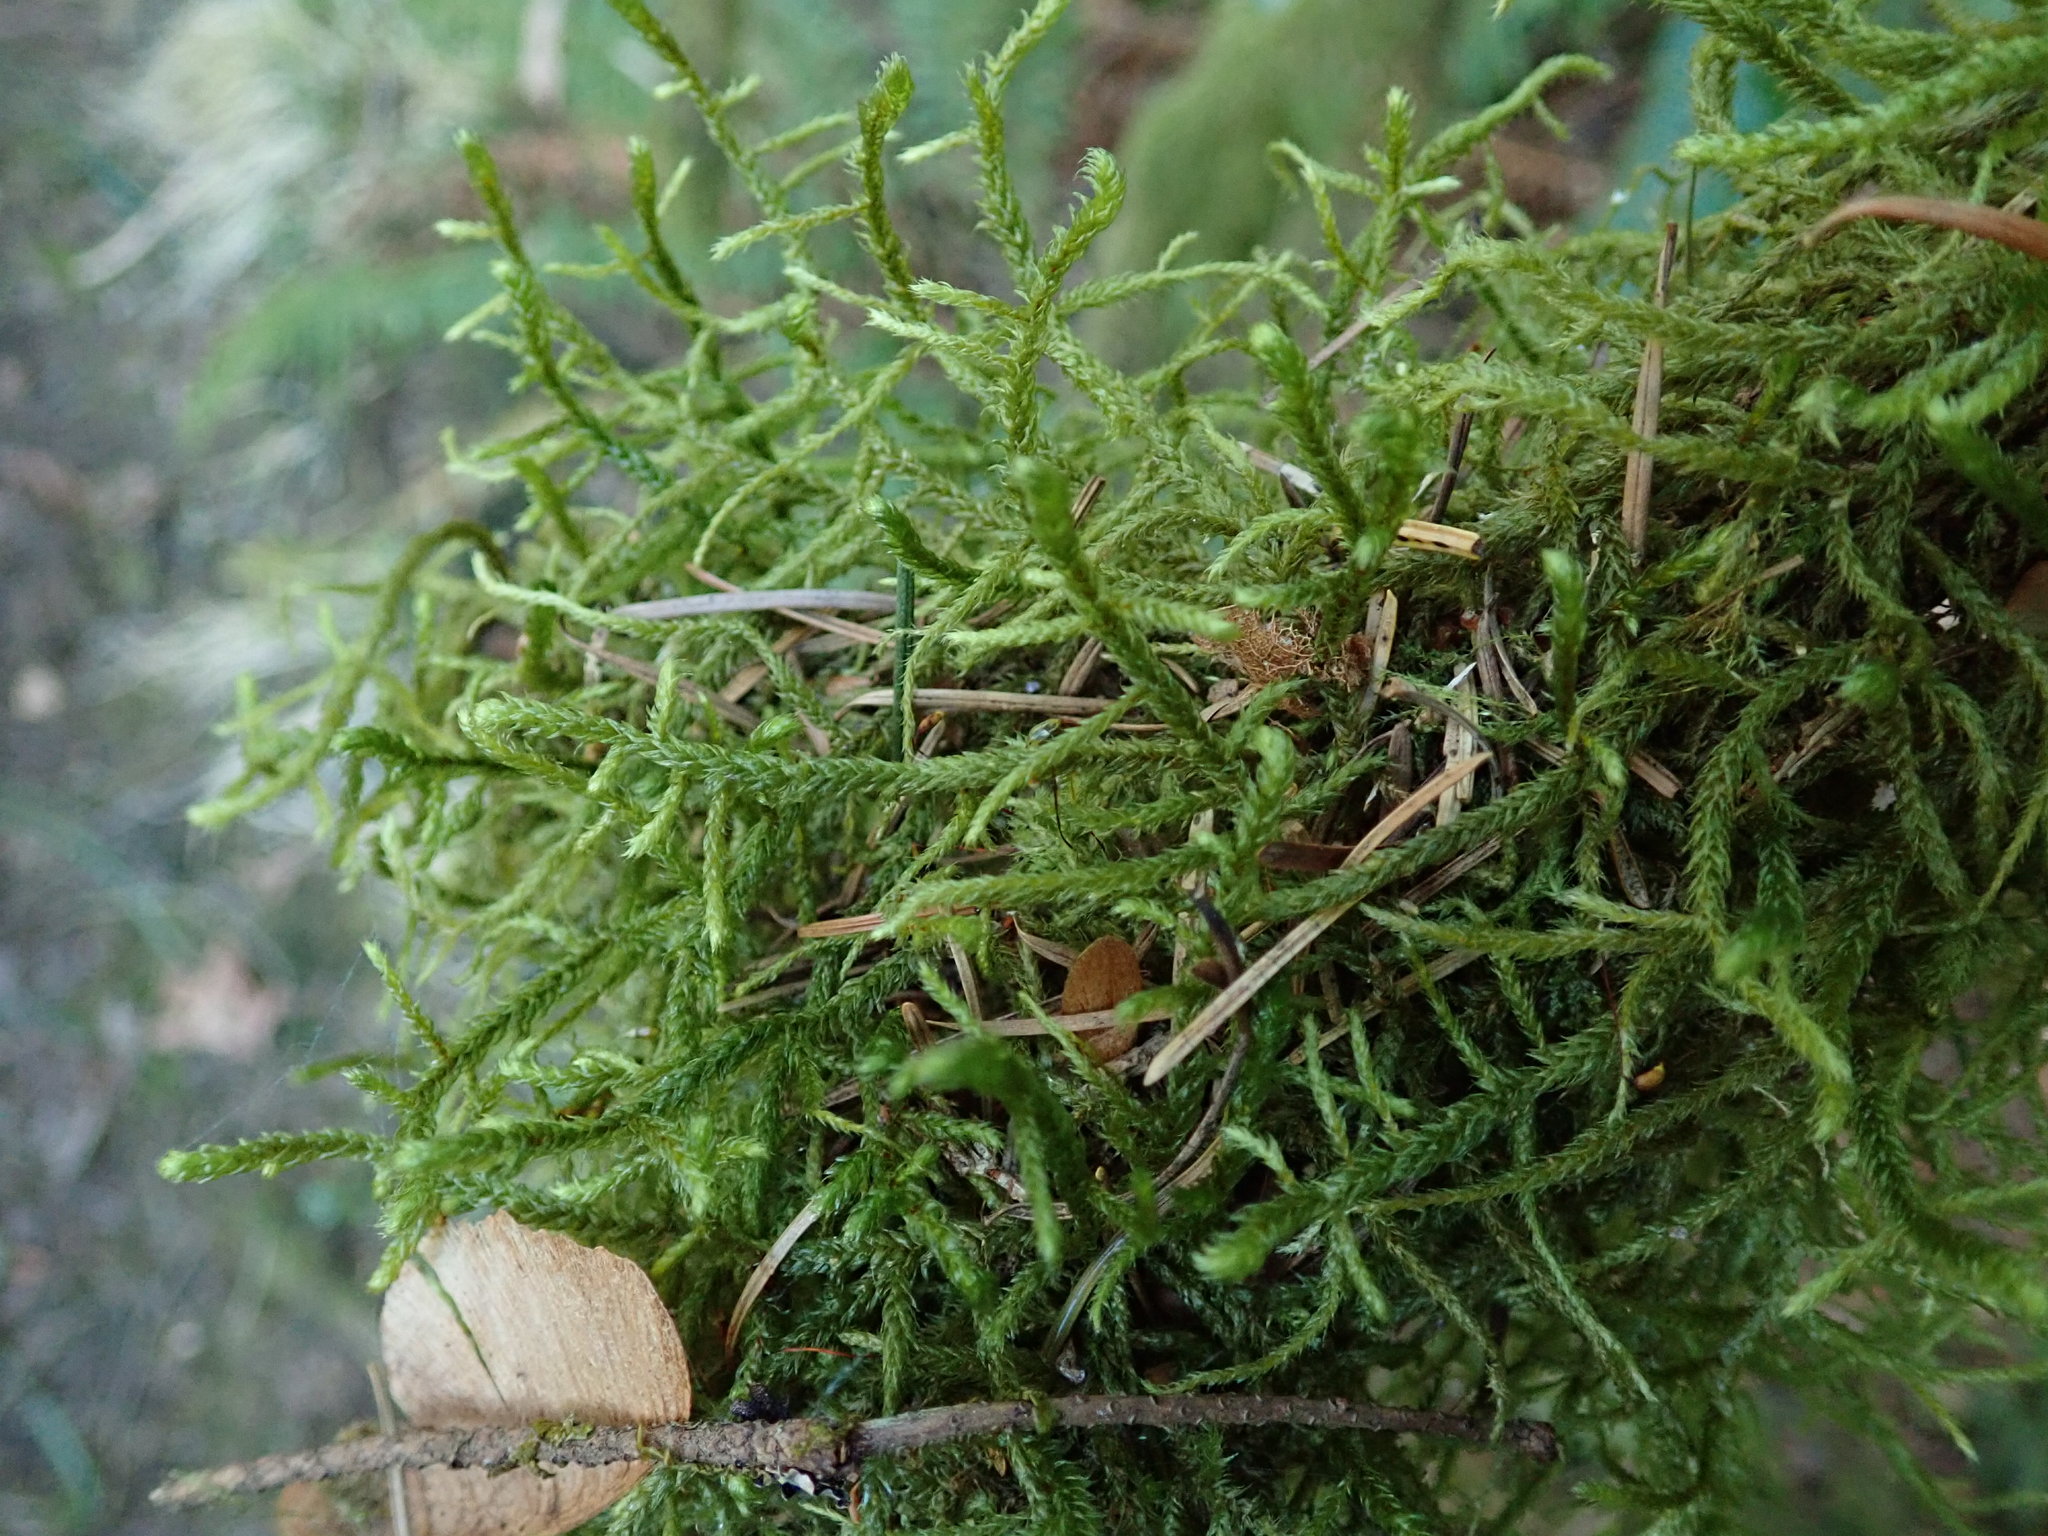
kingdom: Plantae
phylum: Bryophyta
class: Bryopsida
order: Hypnales
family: Antitrichiaceae
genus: Antitrichia
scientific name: Antitrichia curtipendula
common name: Pendulous wing-moss
